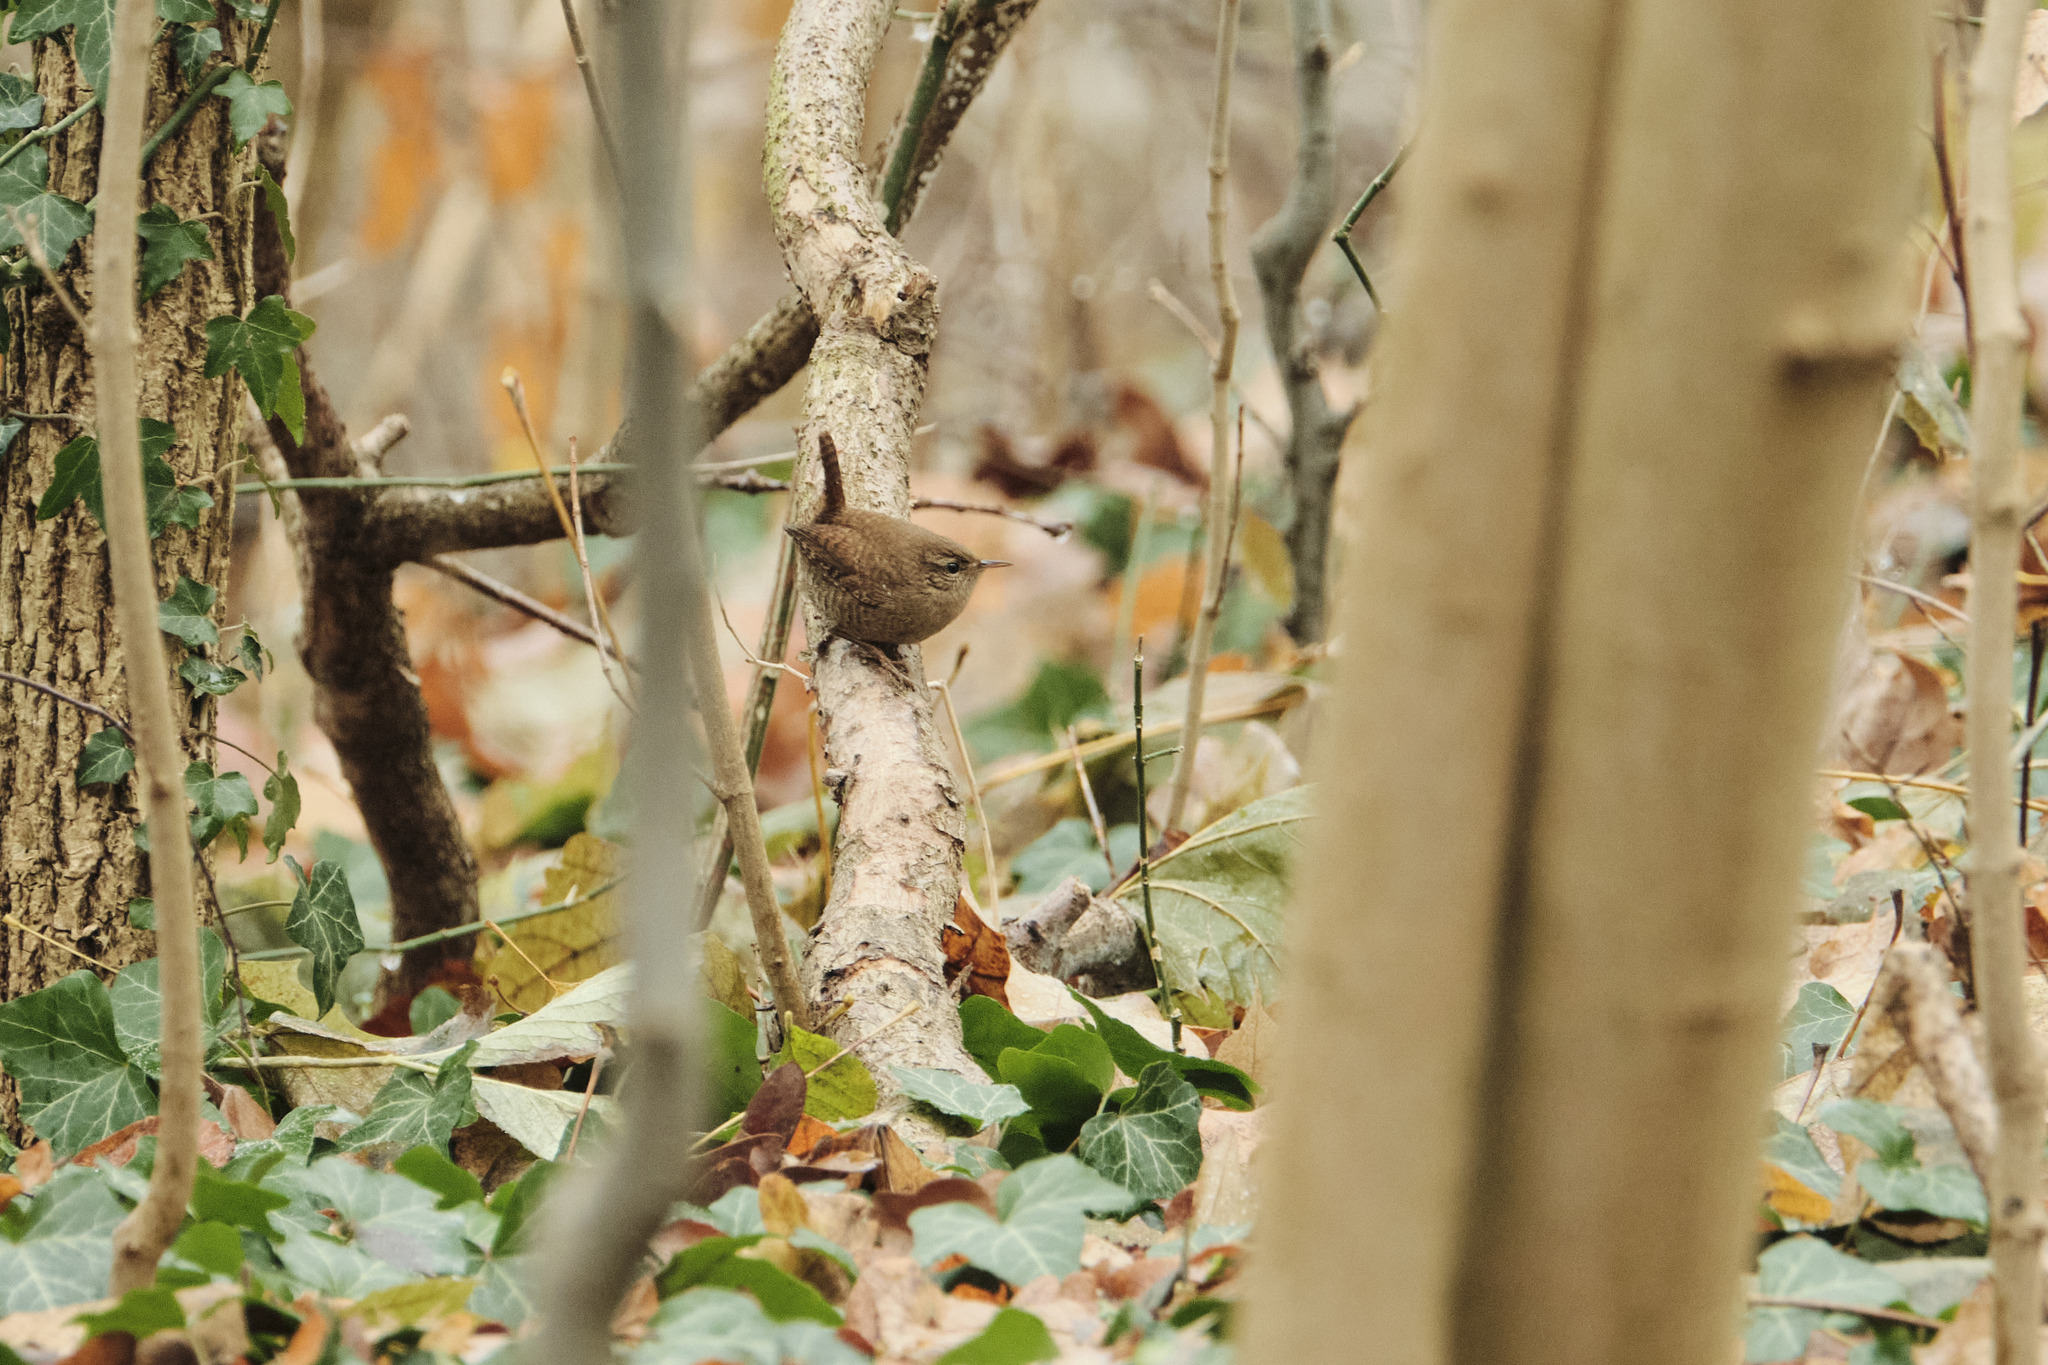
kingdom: Animalia
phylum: Chordata
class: Aves
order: Passeriformes
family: Troglodytidae
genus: Troglodytes
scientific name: Troglodytes troglodytes
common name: Eurasian wren
